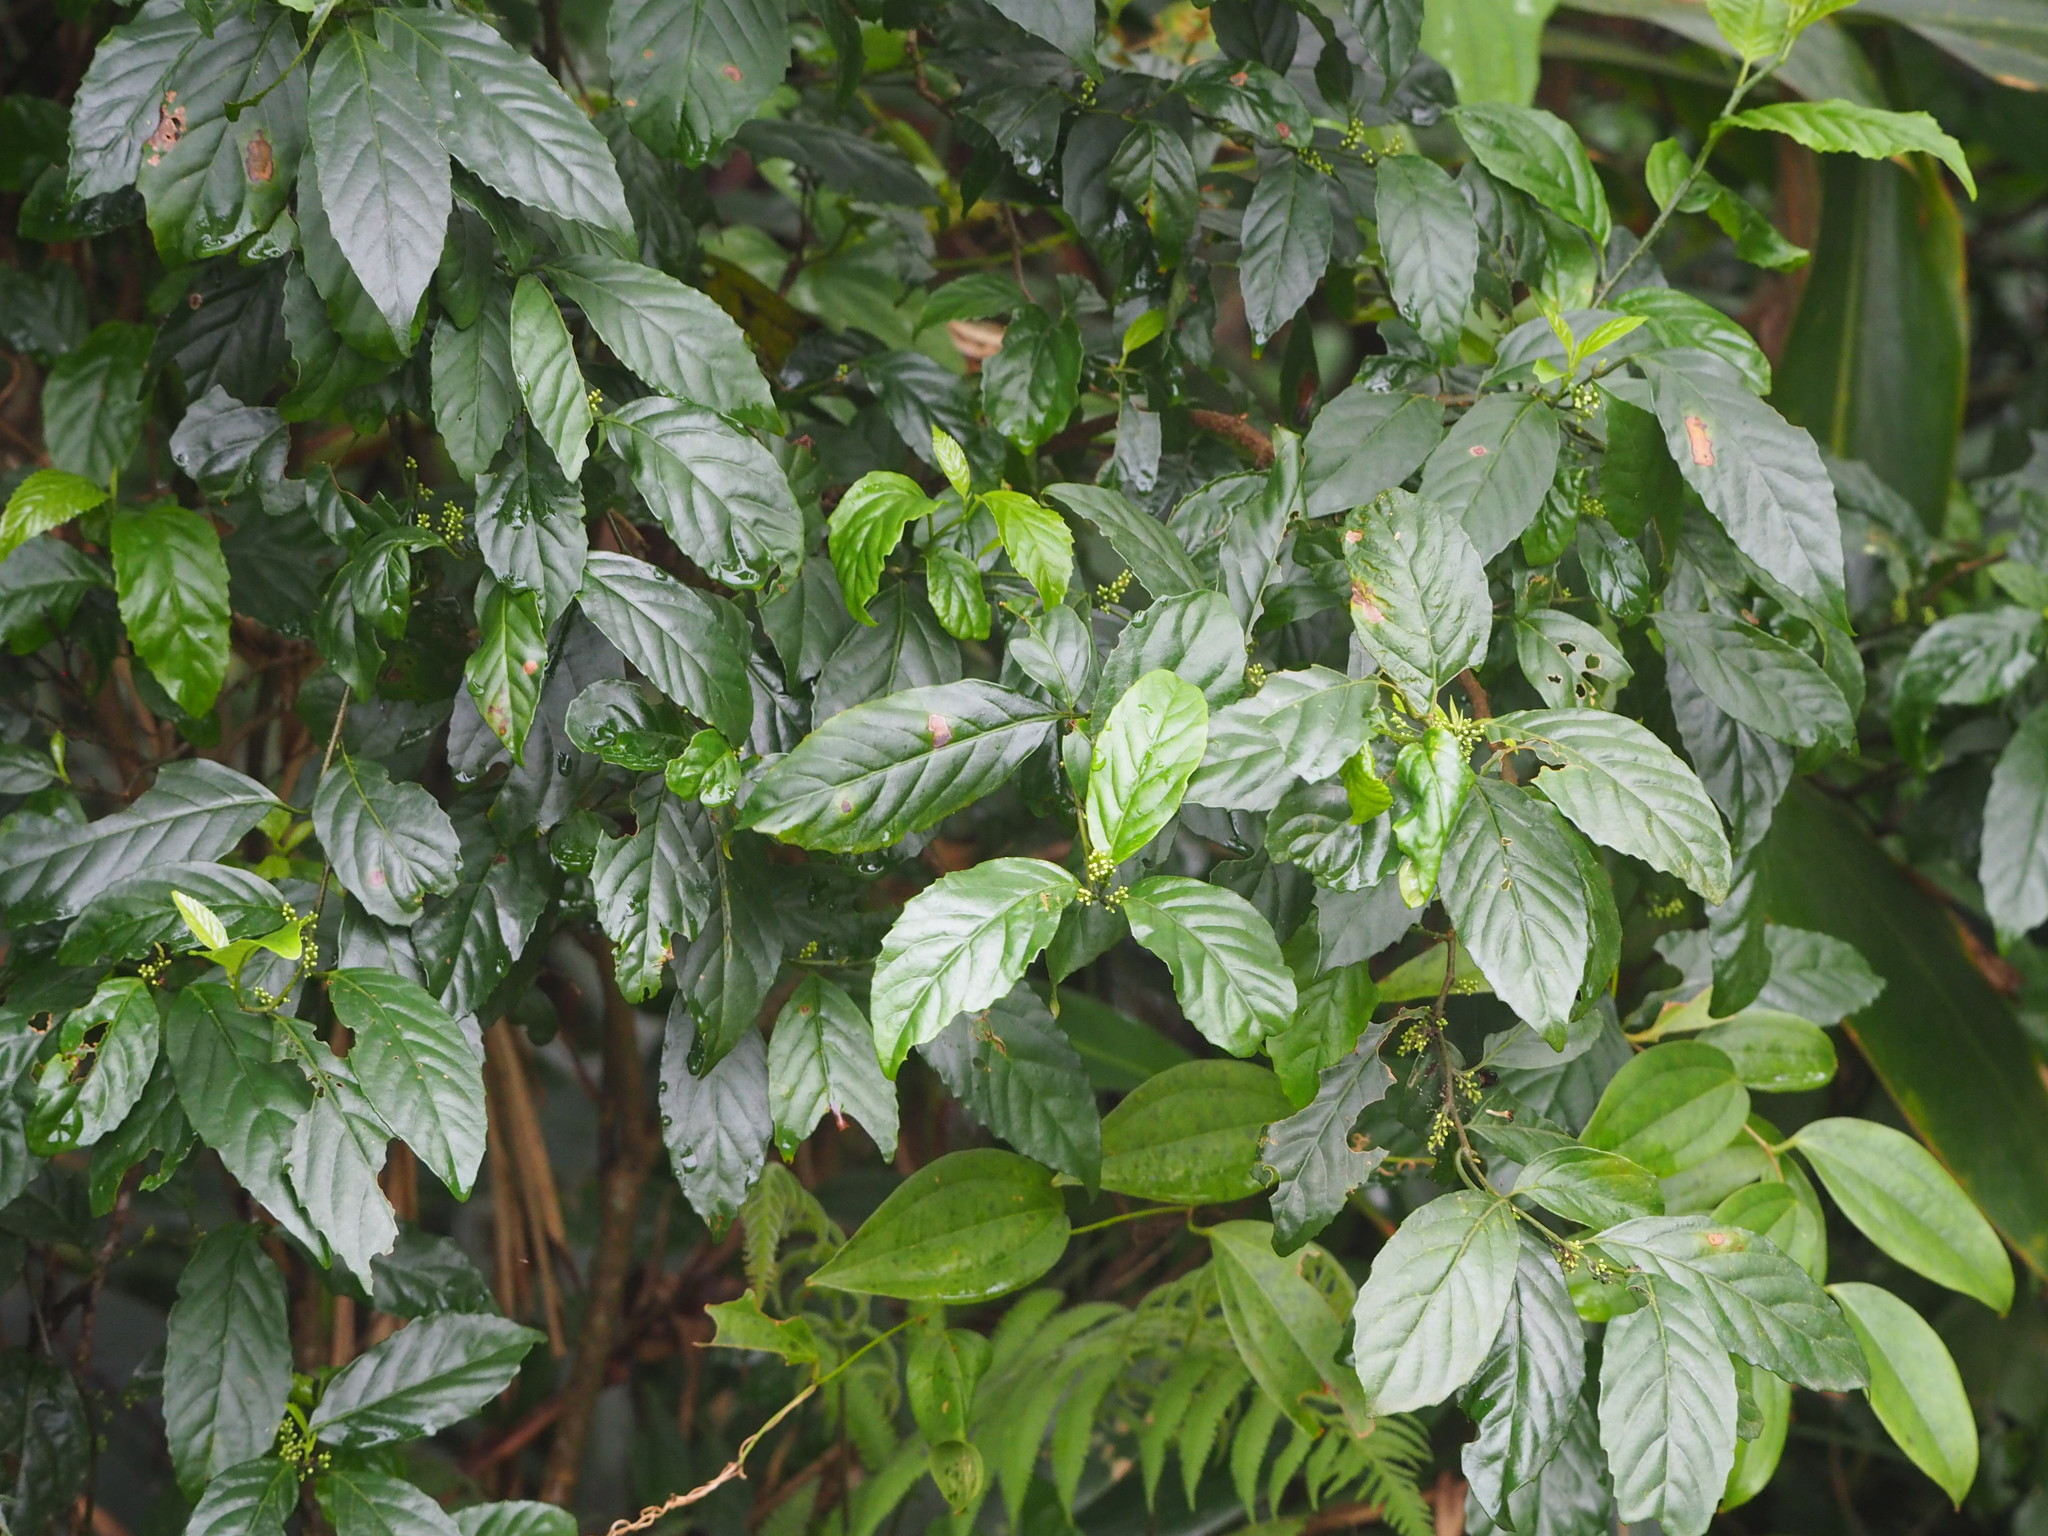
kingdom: Plantae
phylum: Tracheophyta
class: Magnoliopsida
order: Ericales
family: Primulaceae
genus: Maesa
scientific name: Maesa perlaria
